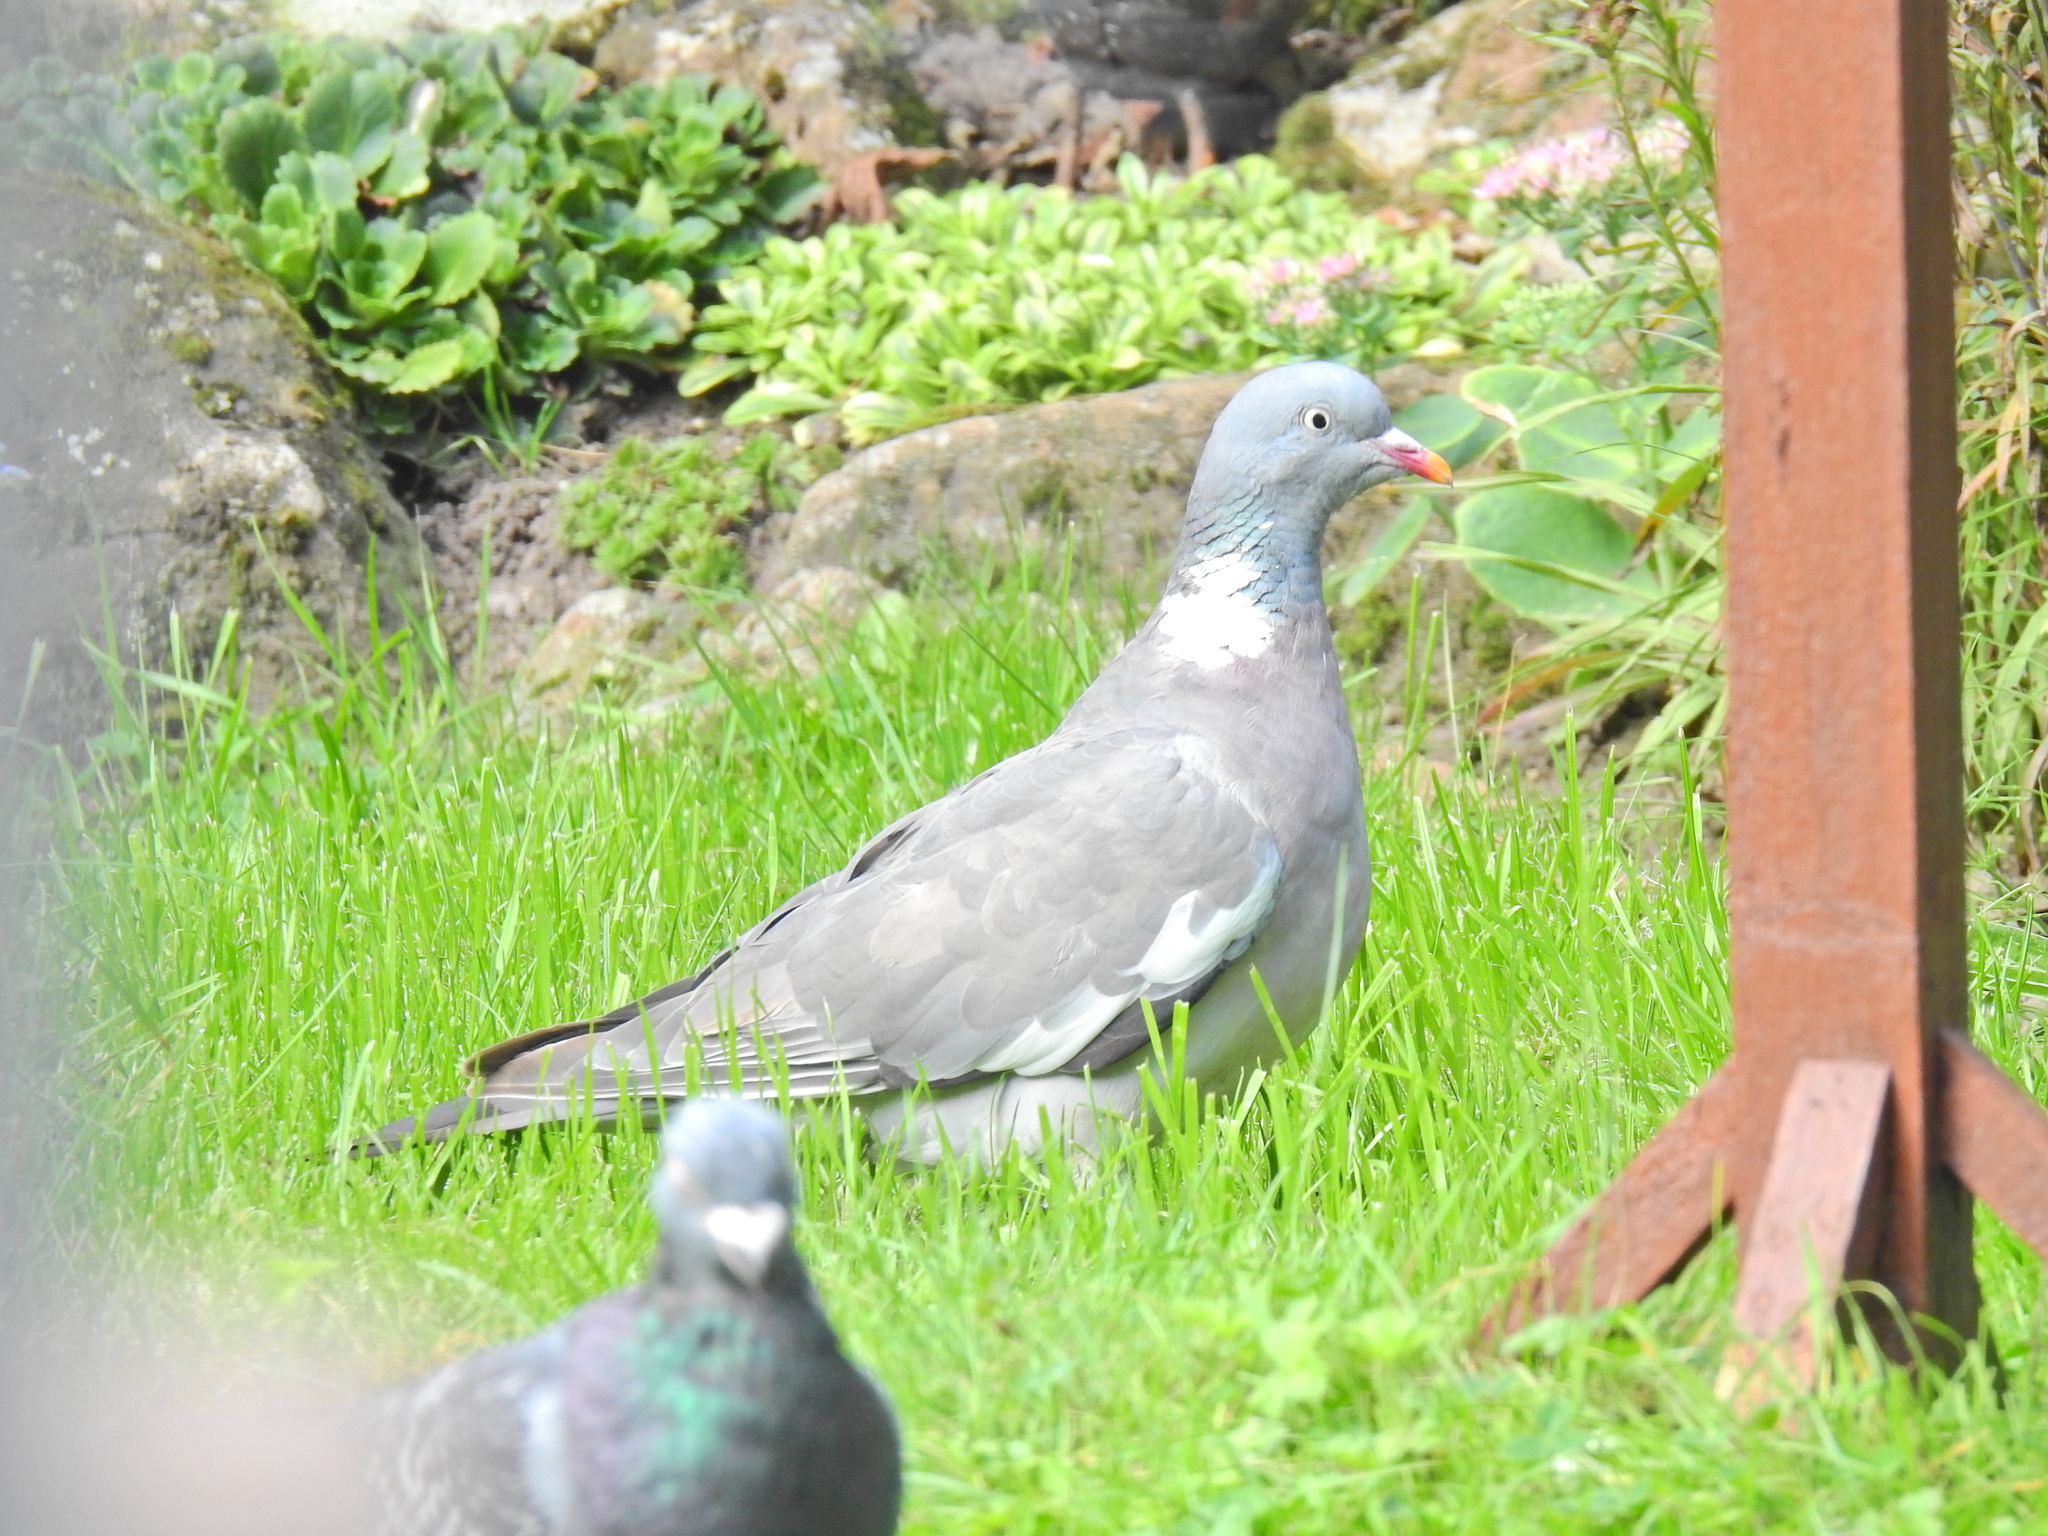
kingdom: Animalia
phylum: Chordata
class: Aves
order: Columbiformes
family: Columbidae
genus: Columba
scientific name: Columba palumbus
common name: Common wood pigeon
